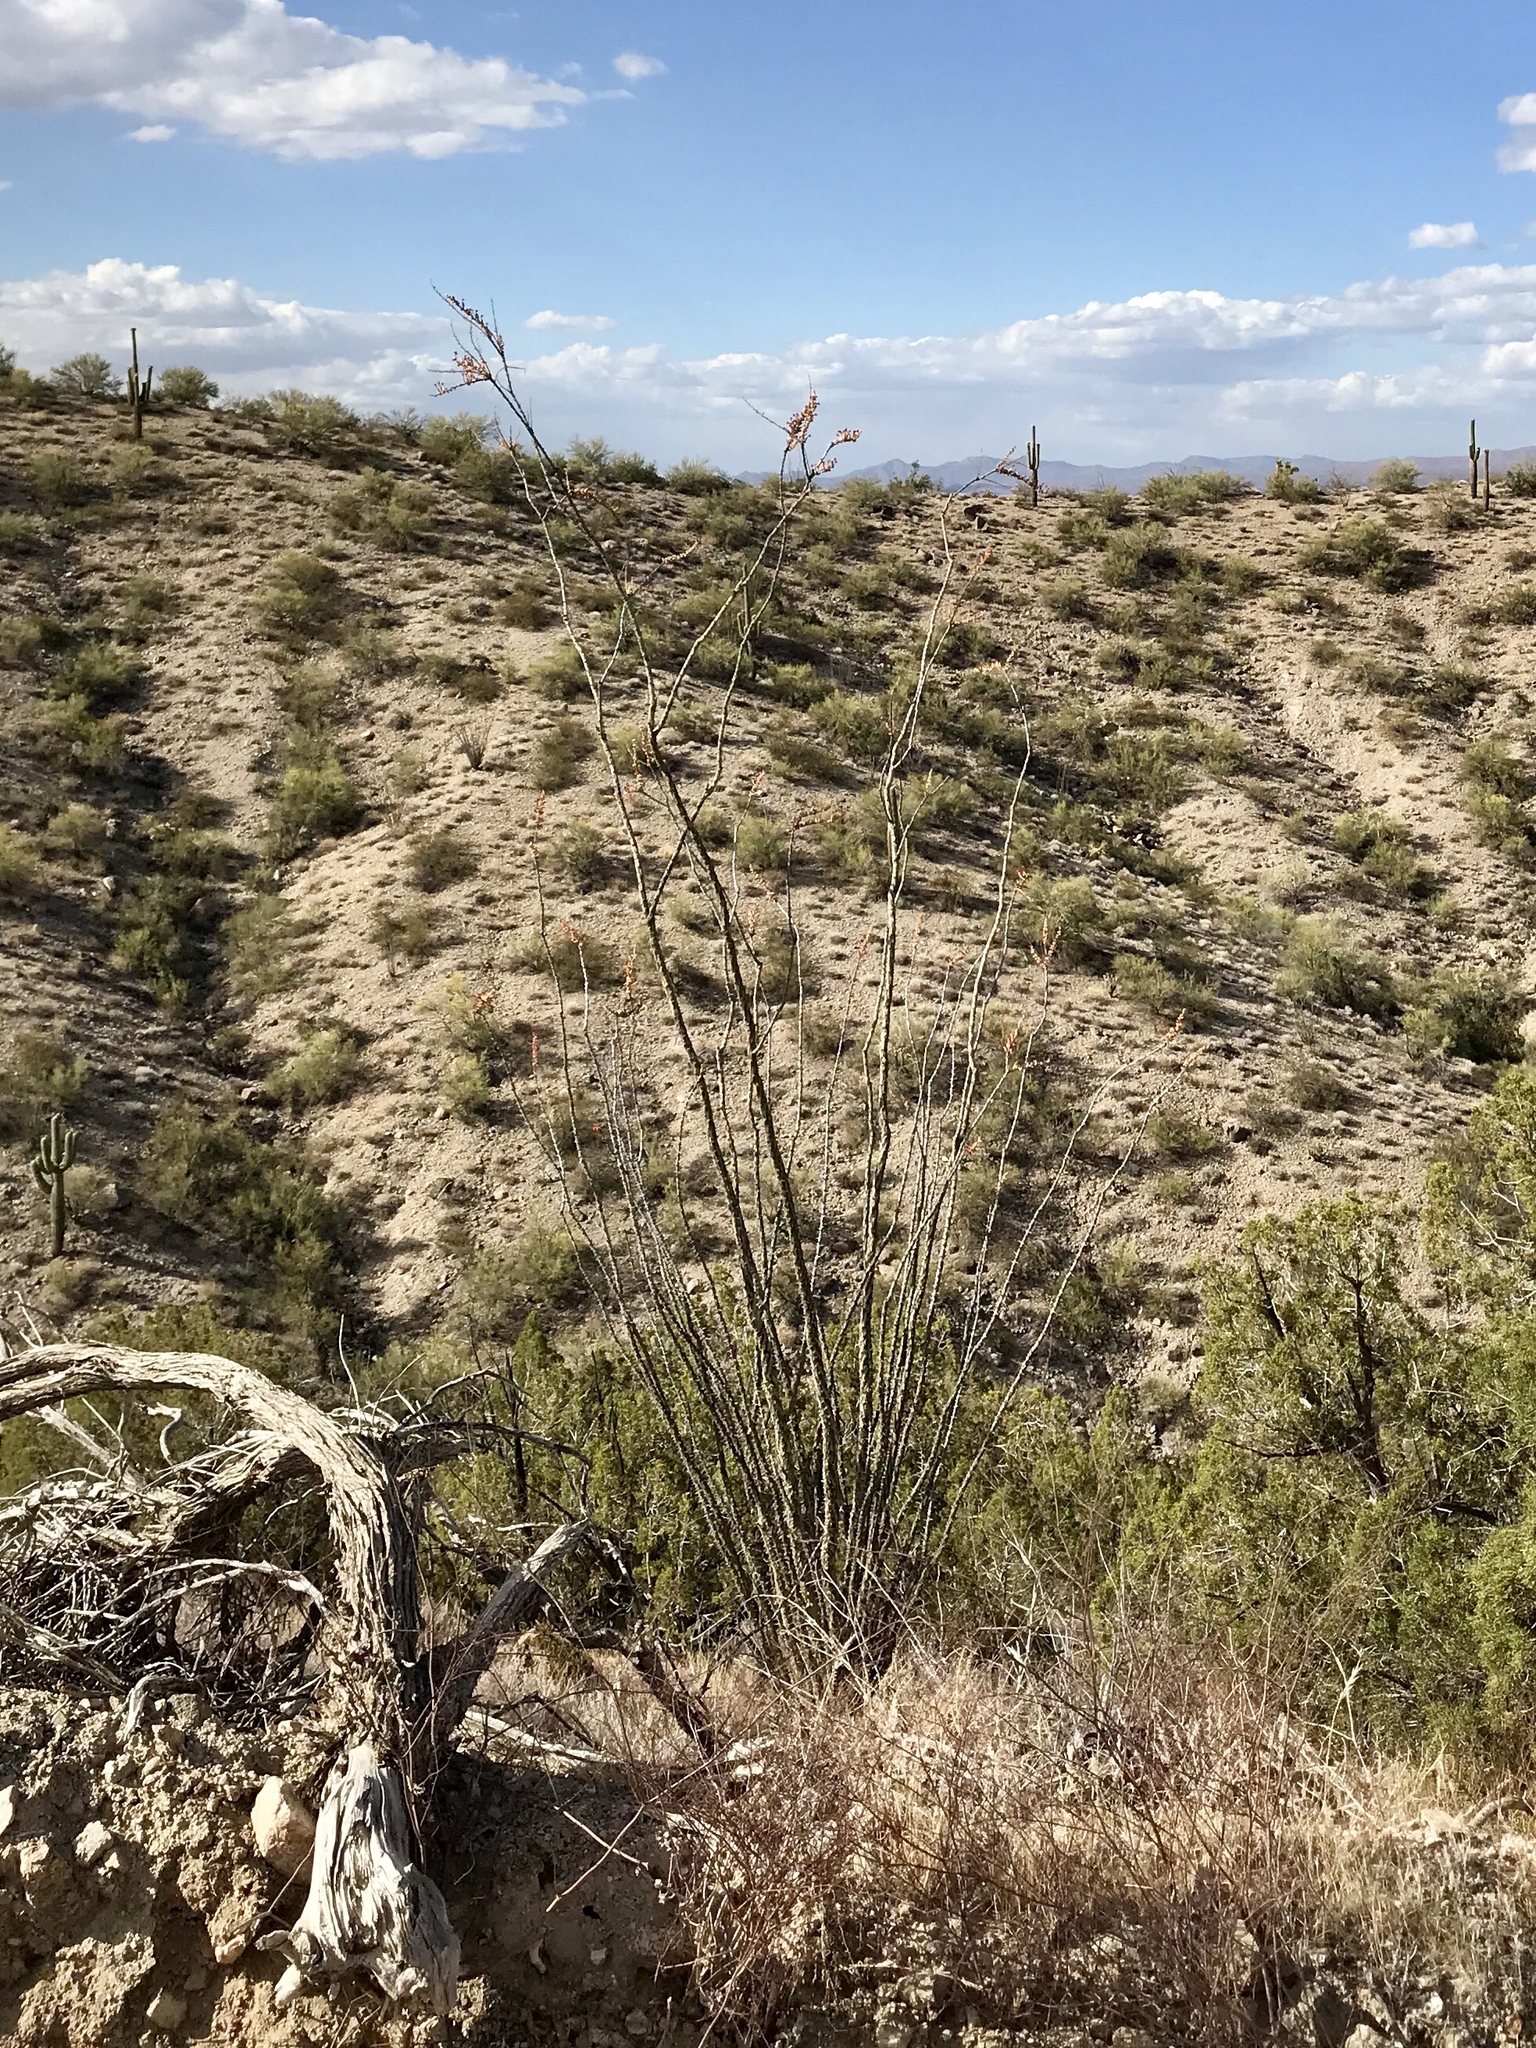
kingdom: Plantae
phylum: Tracheophyta
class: Magnoliopsida
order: Ericales
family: Fouquieriaceae
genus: Fouquieria
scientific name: Fouquieria splendens
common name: Vine-cactus
